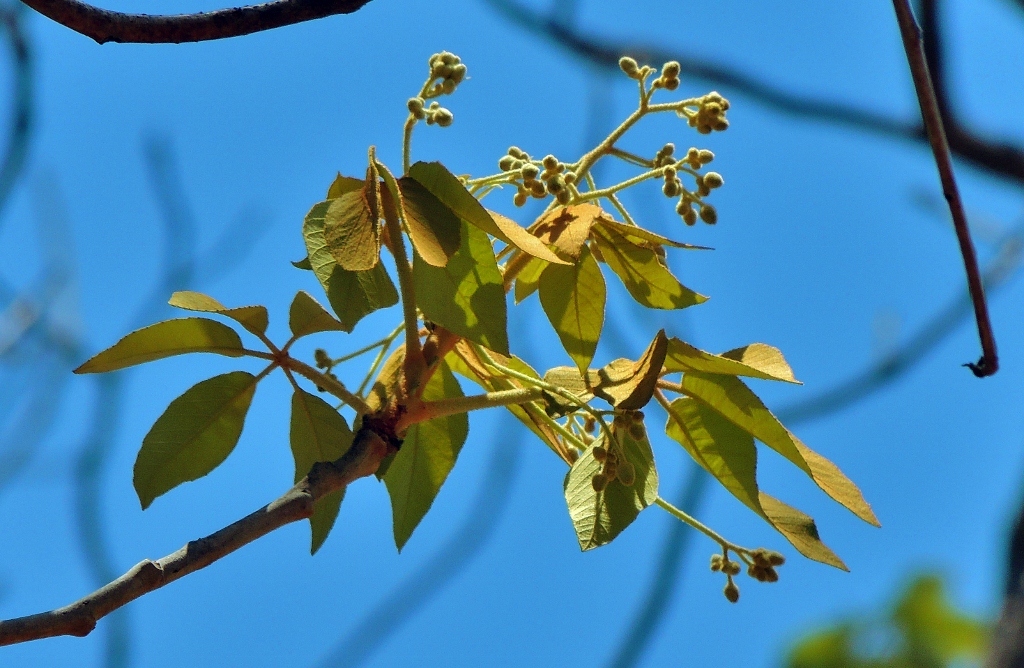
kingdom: Plantae
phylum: Tracheophyta
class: Magnoliopsida
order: Malpighiales
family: Euphorbiaceae
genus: Schinziophyton
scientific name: Schinziophyton rautanenii
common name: Manketti
